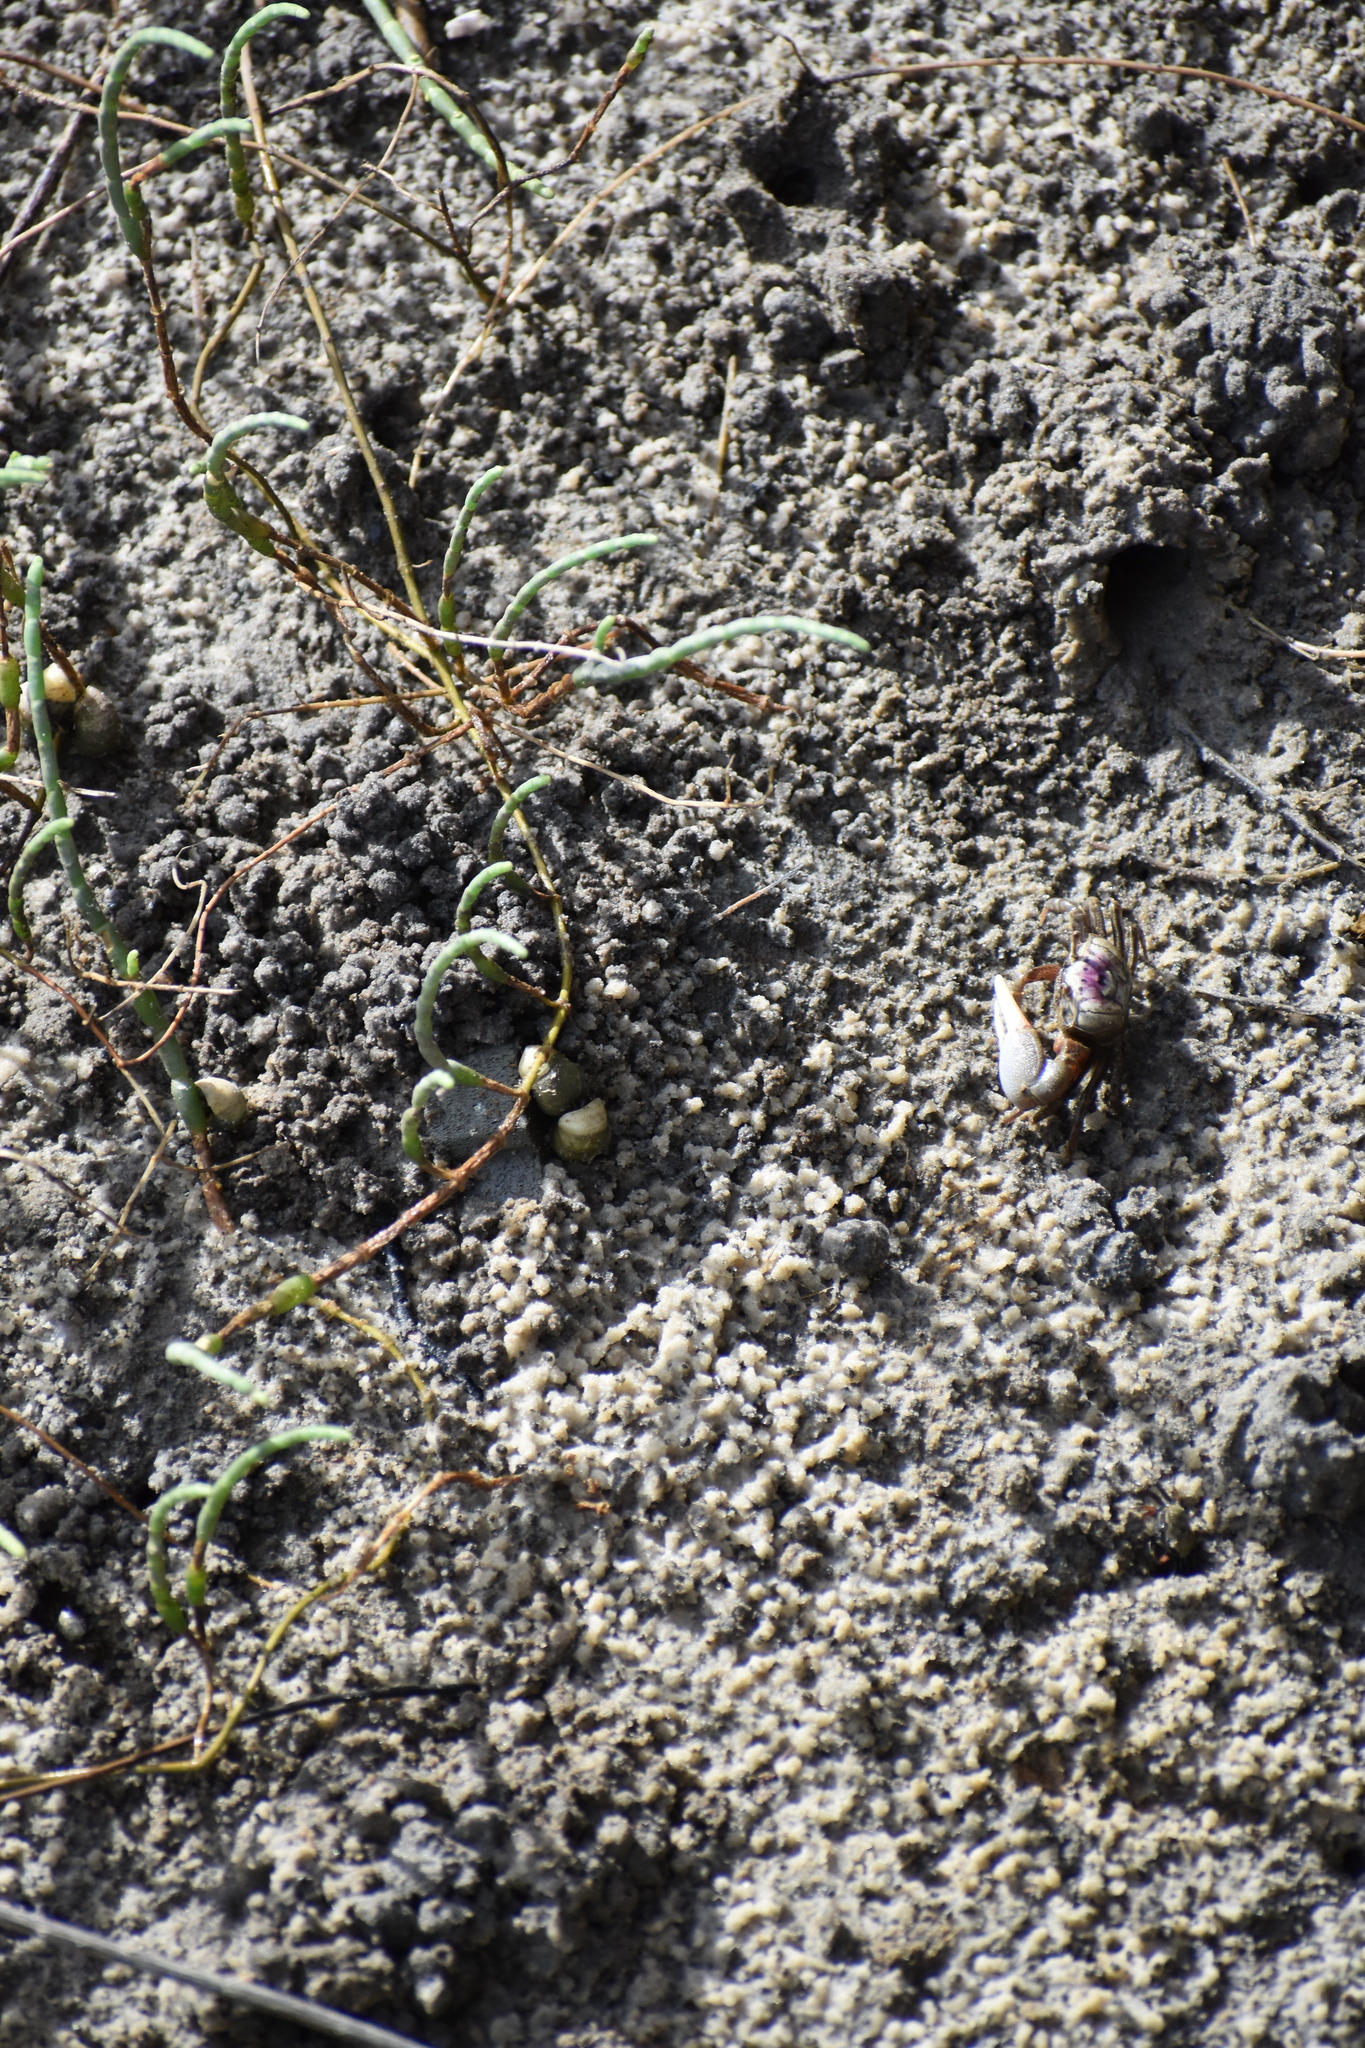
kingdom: Animalia
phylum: Arthropoda
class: Malacostraca
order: Decapoda
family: Ocypodidae
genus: Leptuca
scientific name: Leptuca pugilator
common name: Atlantic sand fiddler crab
